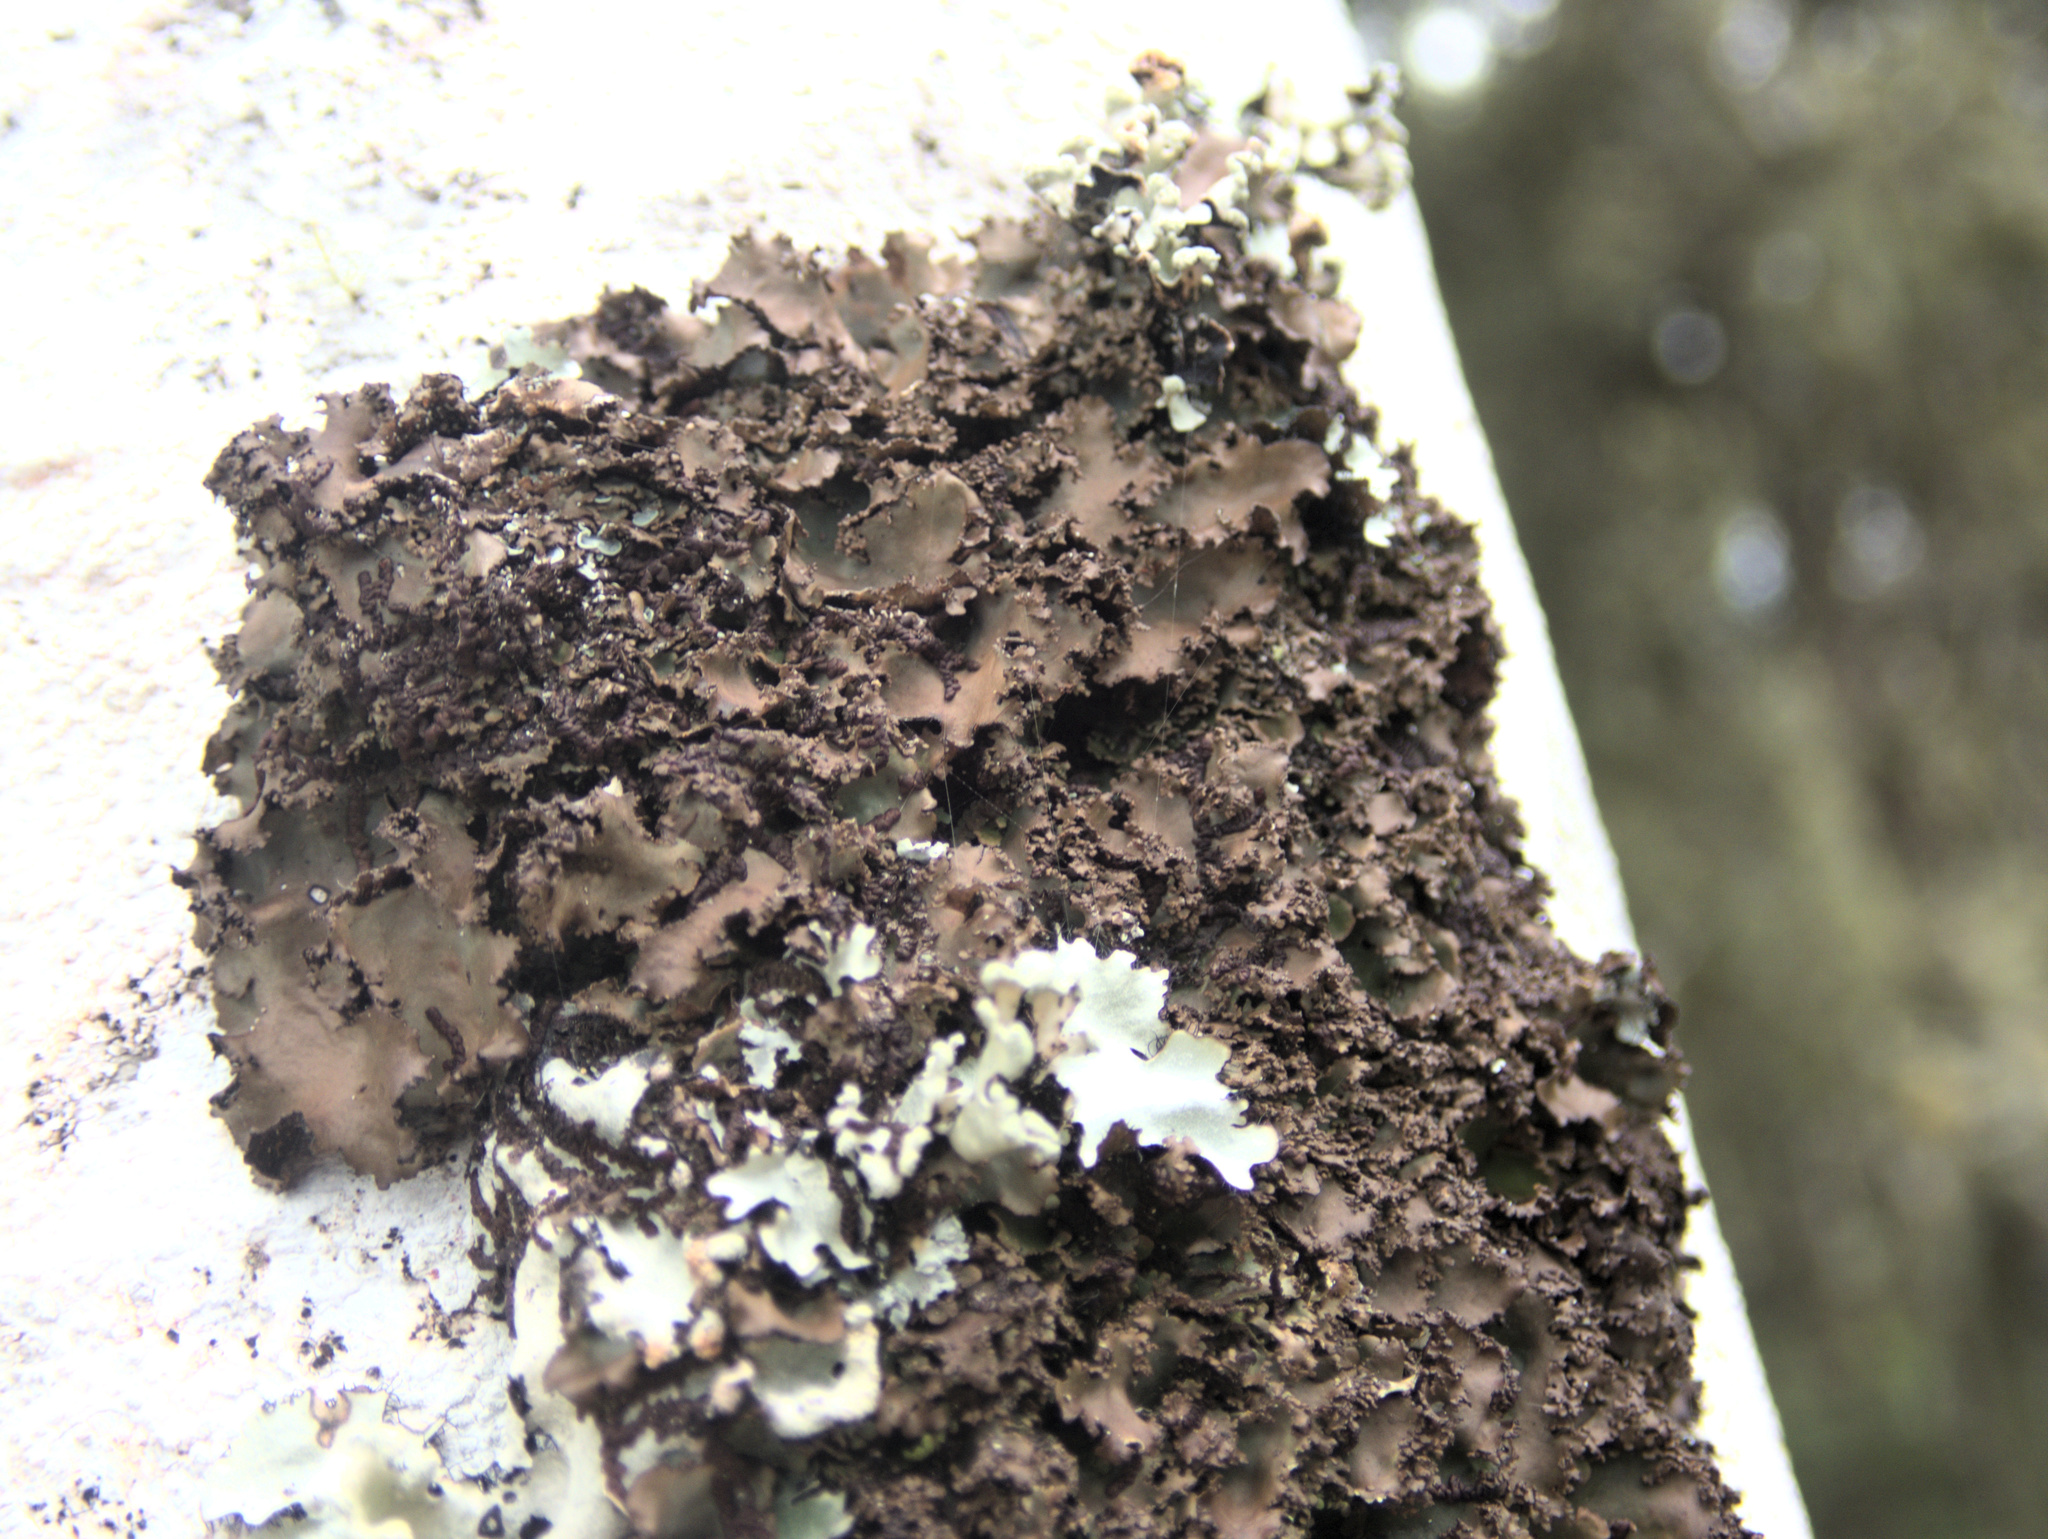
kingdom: Fungi
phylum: Ascomycota
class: Lecanoromycetes
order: Peltigerales
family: Lobariaceae
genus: Sticta
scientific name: Sticta babingtonii
